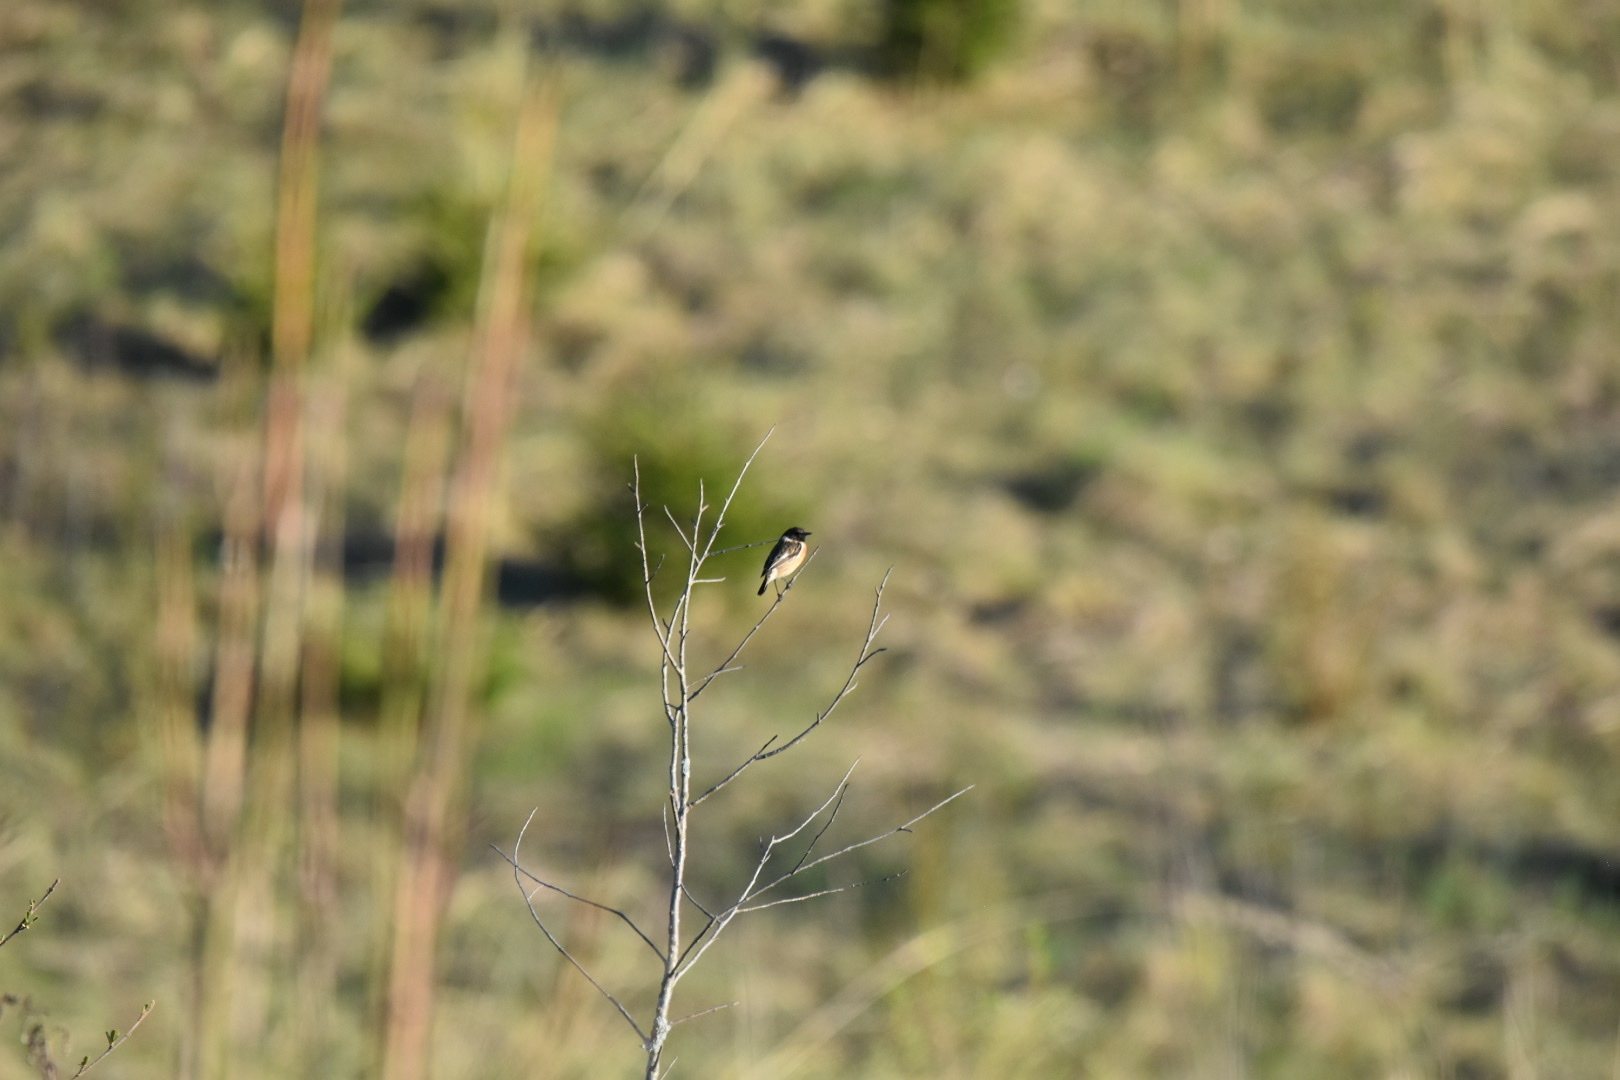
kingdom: Animalia
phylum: Chordata
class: Aves
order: Passeriformes
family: Muscicapidae
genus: Saxicola
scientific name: Saxicola rubicola
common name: European stonechat
